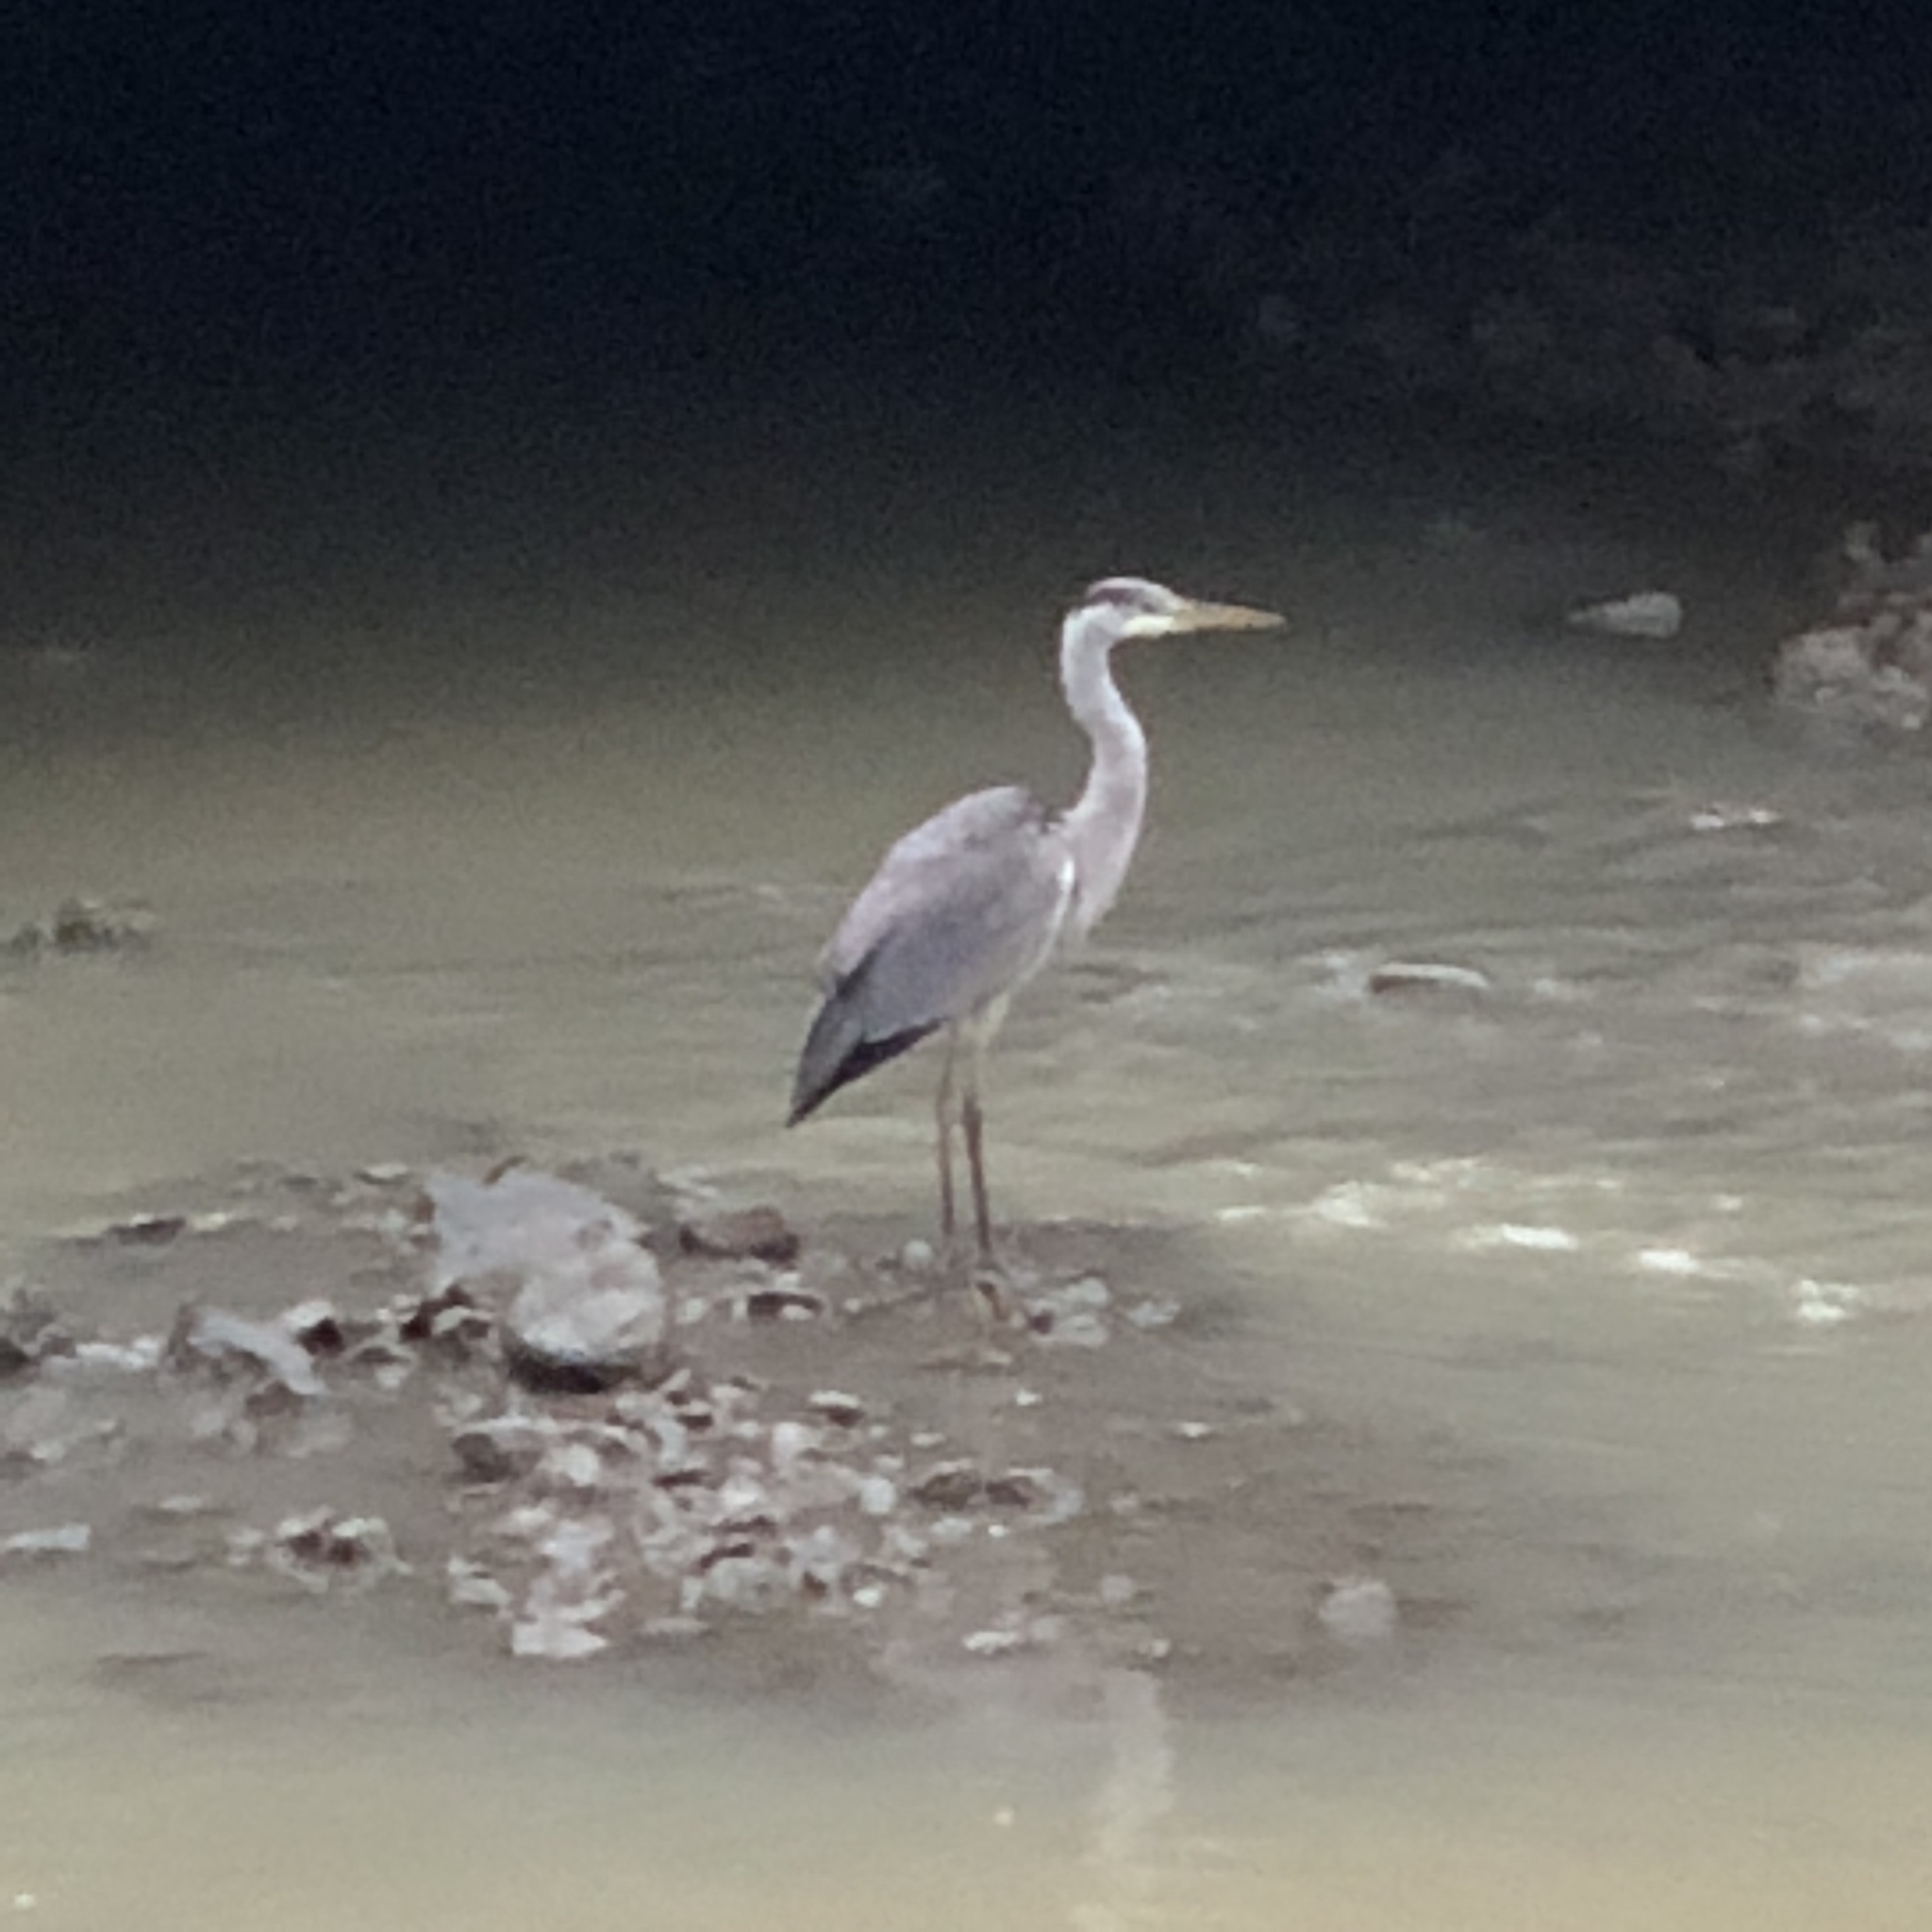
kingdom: Animalia
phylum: Chordata
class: Aves
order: Pelecaniformes
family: Ardeidae
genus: Ardea
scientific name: Ardea cinerea
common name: Grey heron
